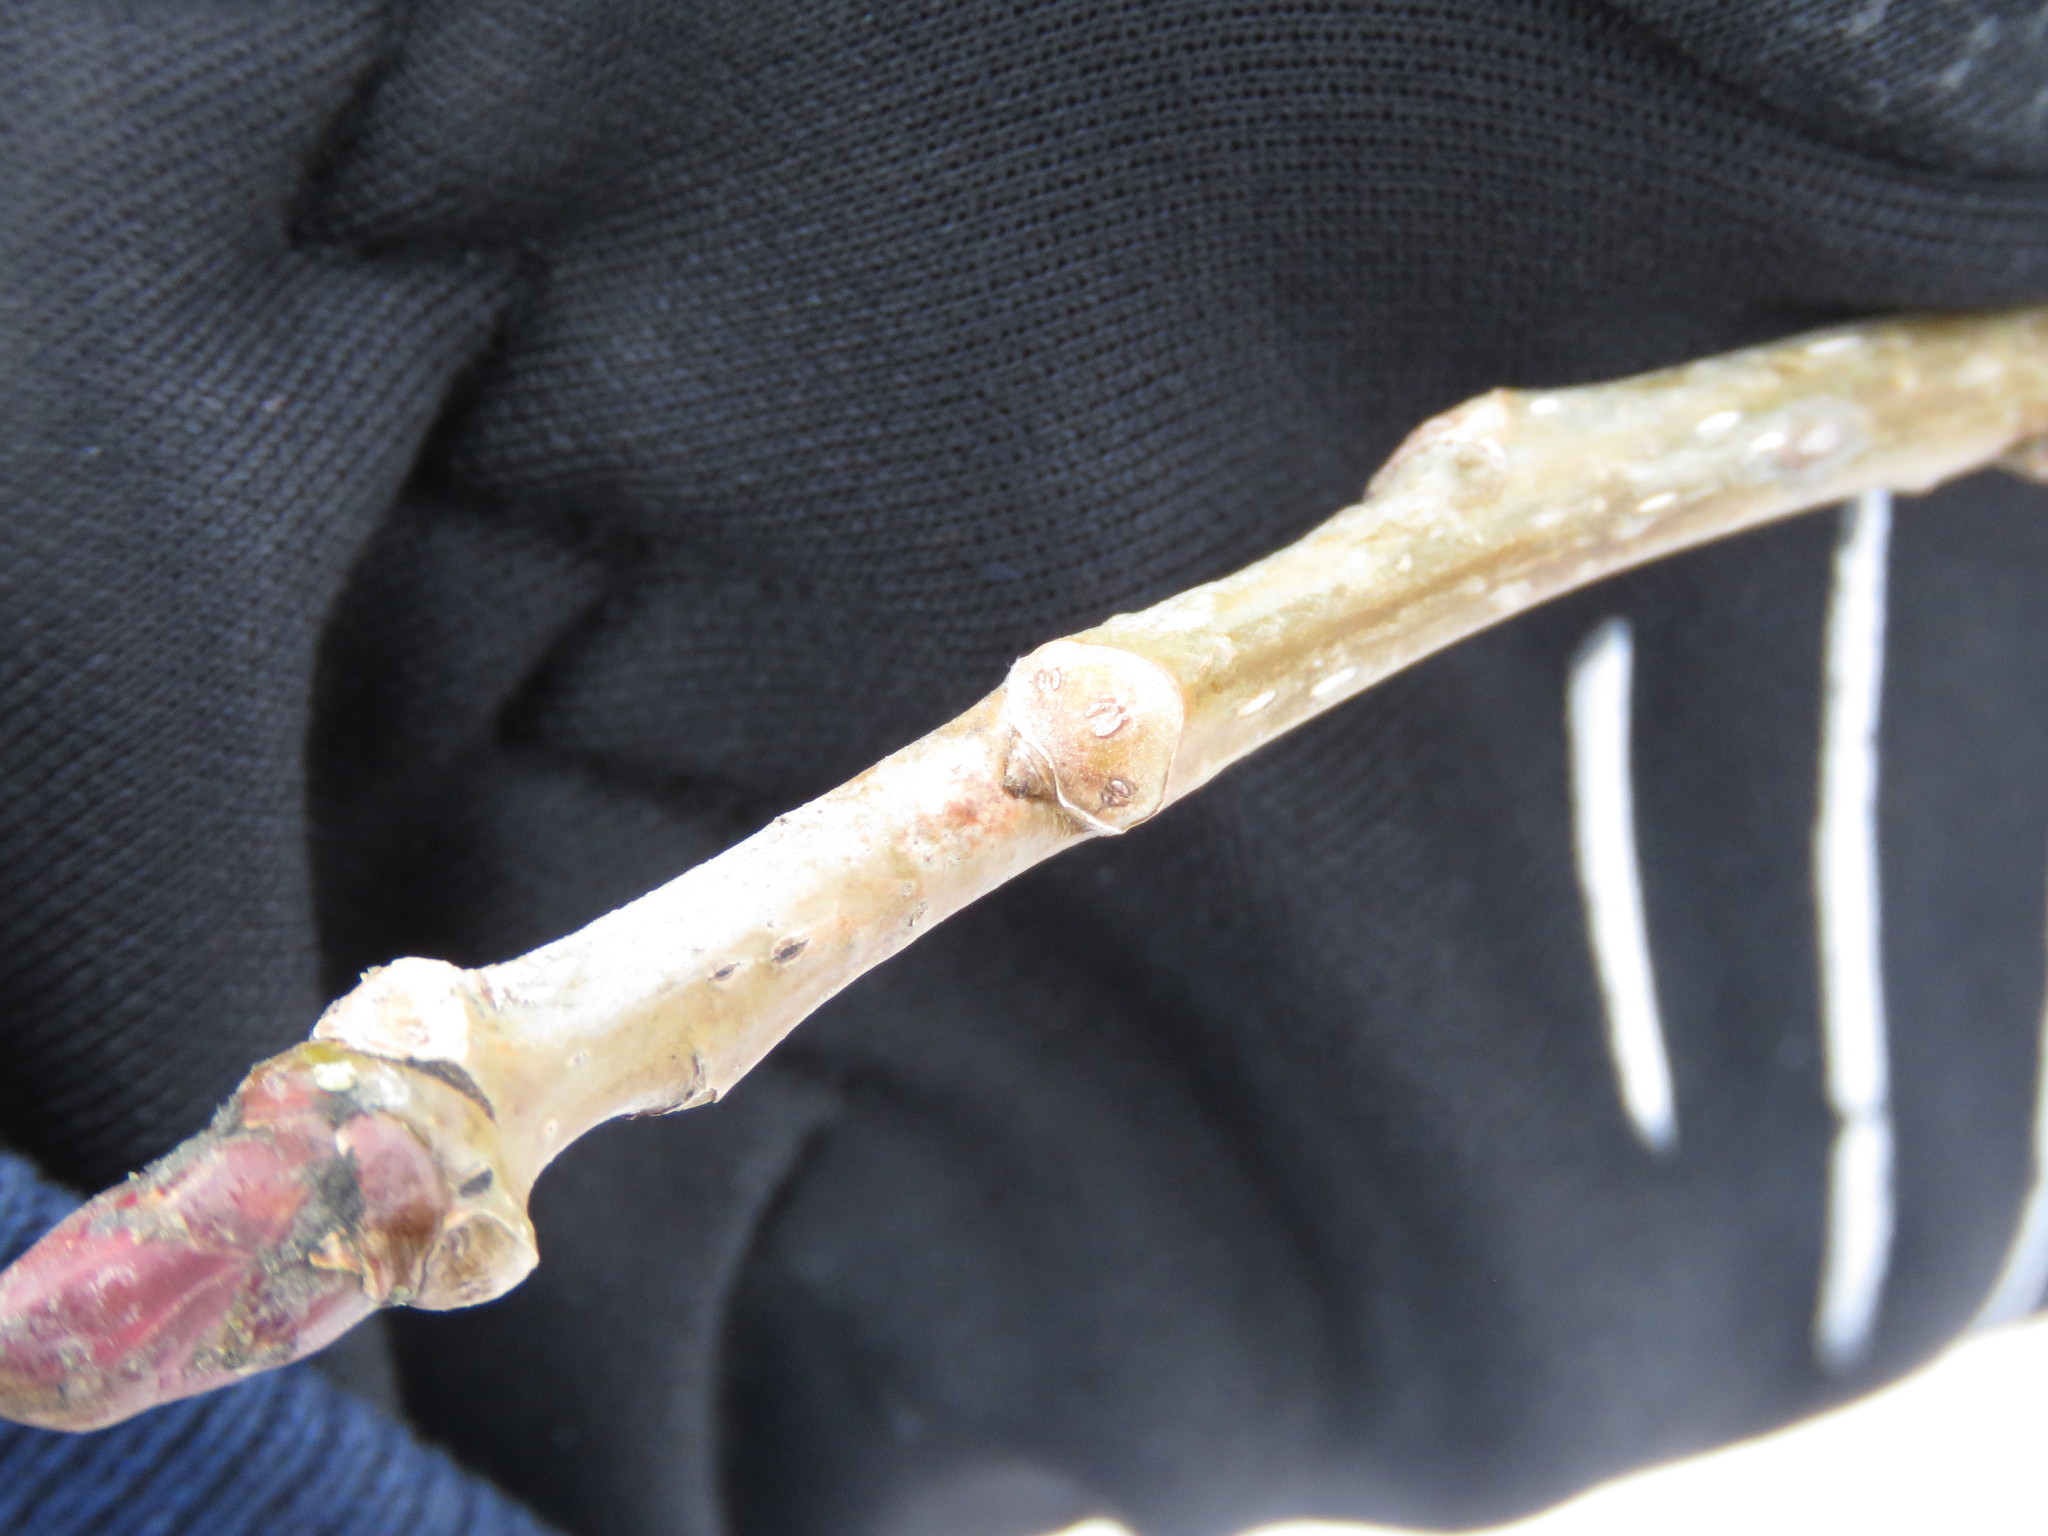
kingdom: Plantae
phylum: Tracheophyta
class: Magnoliopsida
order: Malpighiales
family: Salicaceae
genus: Populus
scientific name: Populus deltoides
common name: Eastern cottonwood
